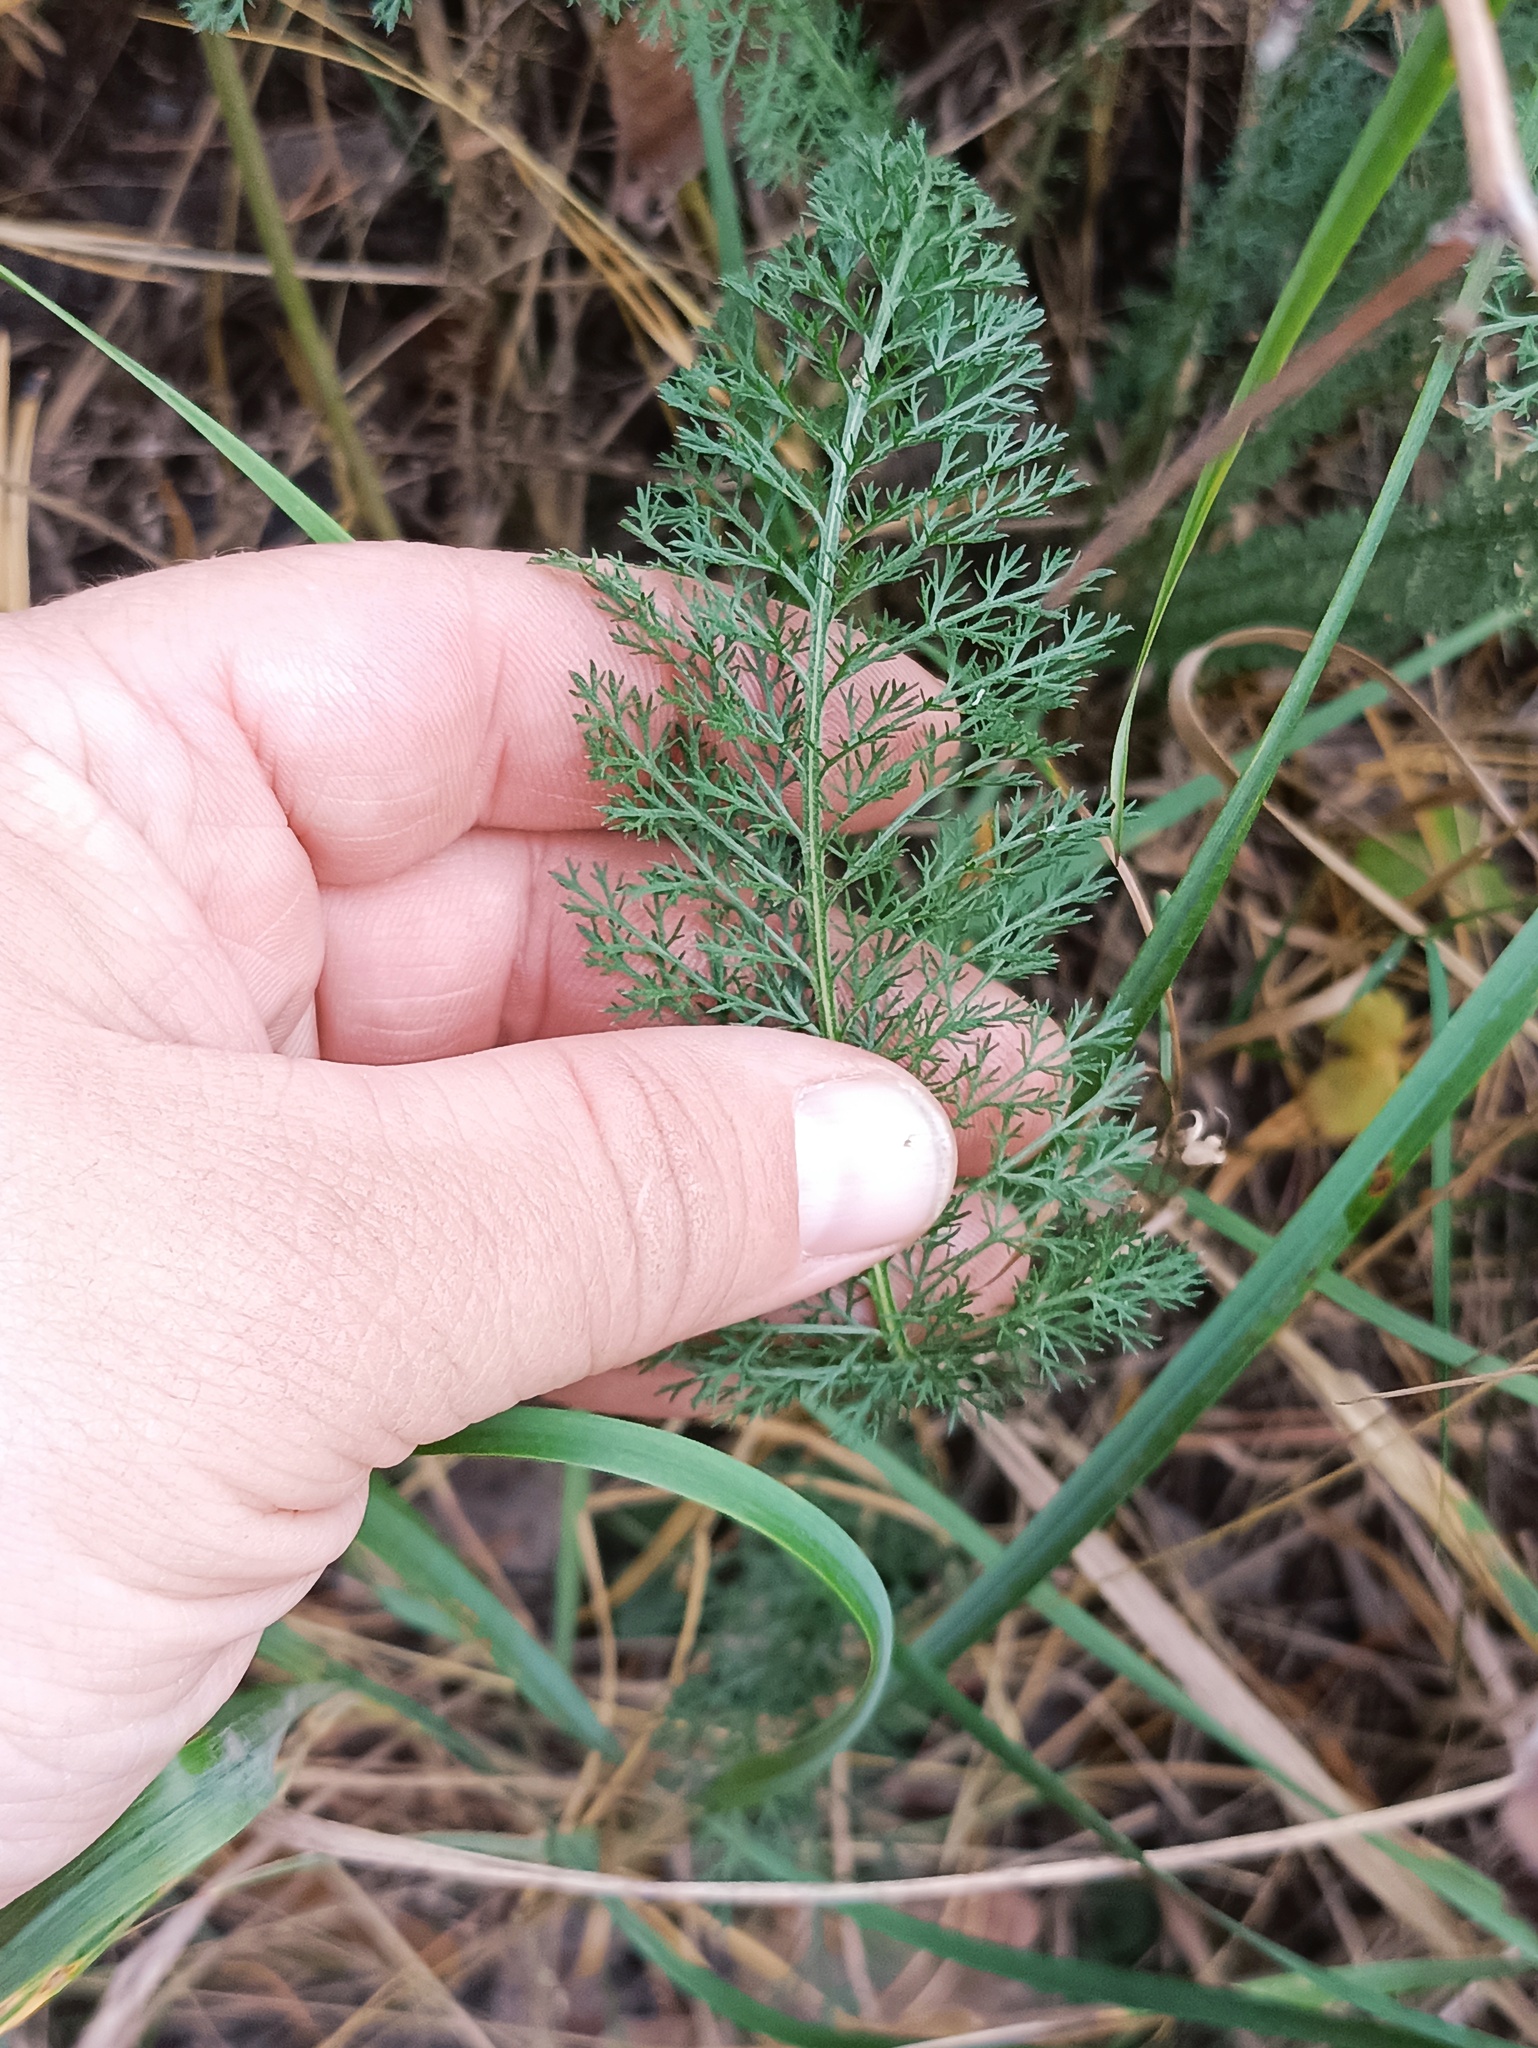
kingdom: Plantae
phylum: Tracheophyta
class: Magnoliopsida
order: Asterales
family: Asteraceae
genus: Achillea
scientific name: Achillea millefolium
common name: Yarrow
